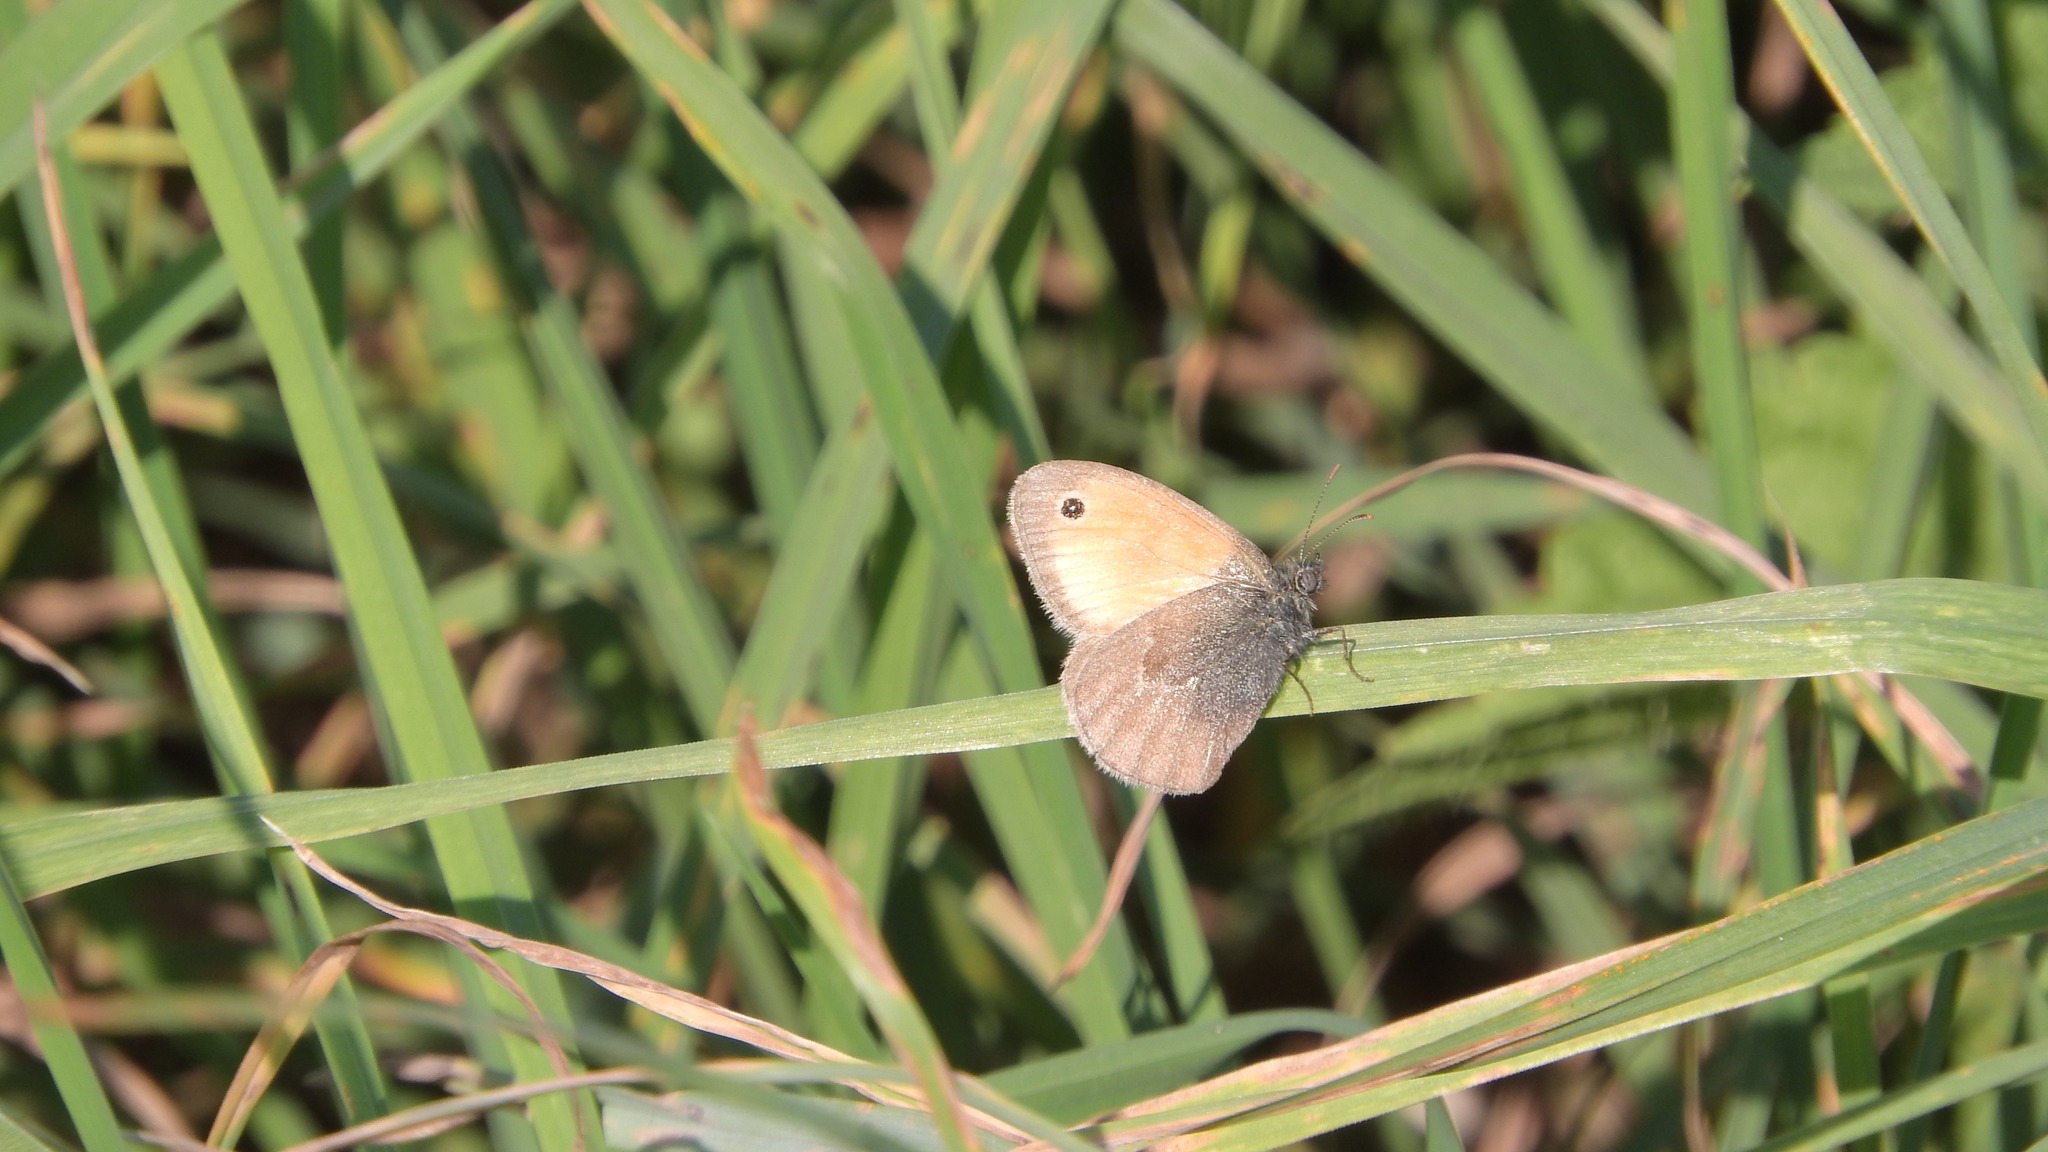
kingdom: Animalia
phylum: Arthropoda
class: Insecta
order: Lepidoptera
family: Nymphalidae
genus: Coenonympha
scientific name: Coenonympha pamphilus
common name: Small heath
